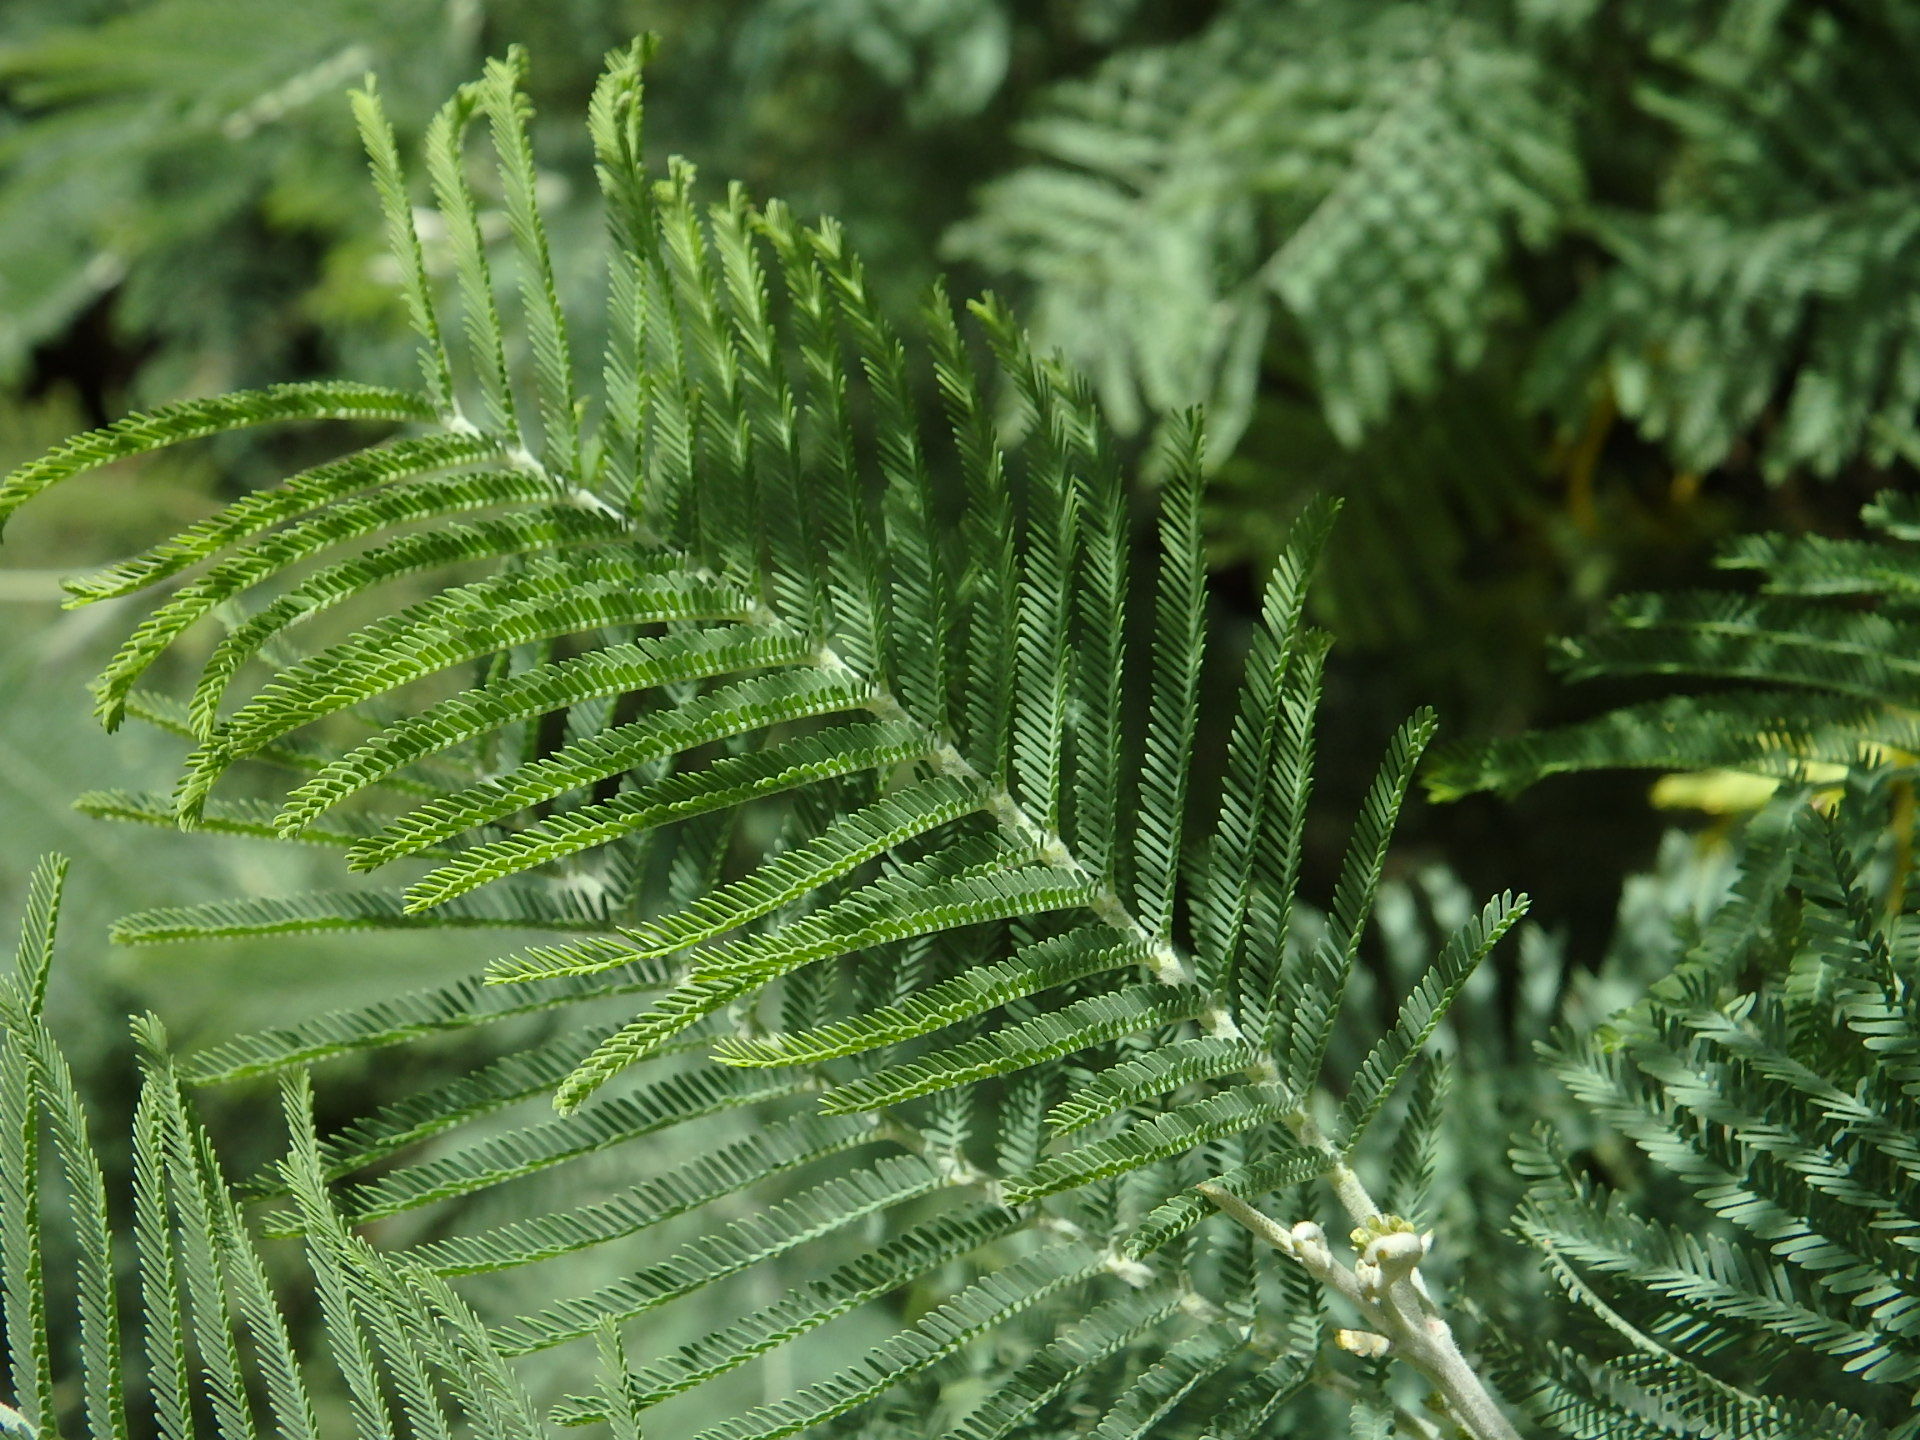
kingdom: Plantae
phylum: Tracheophyta
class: Magnoliopsida
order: Fabales
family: Fabaceae
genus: Acacia
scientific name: Acacia dealbata
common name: Silver wattle
